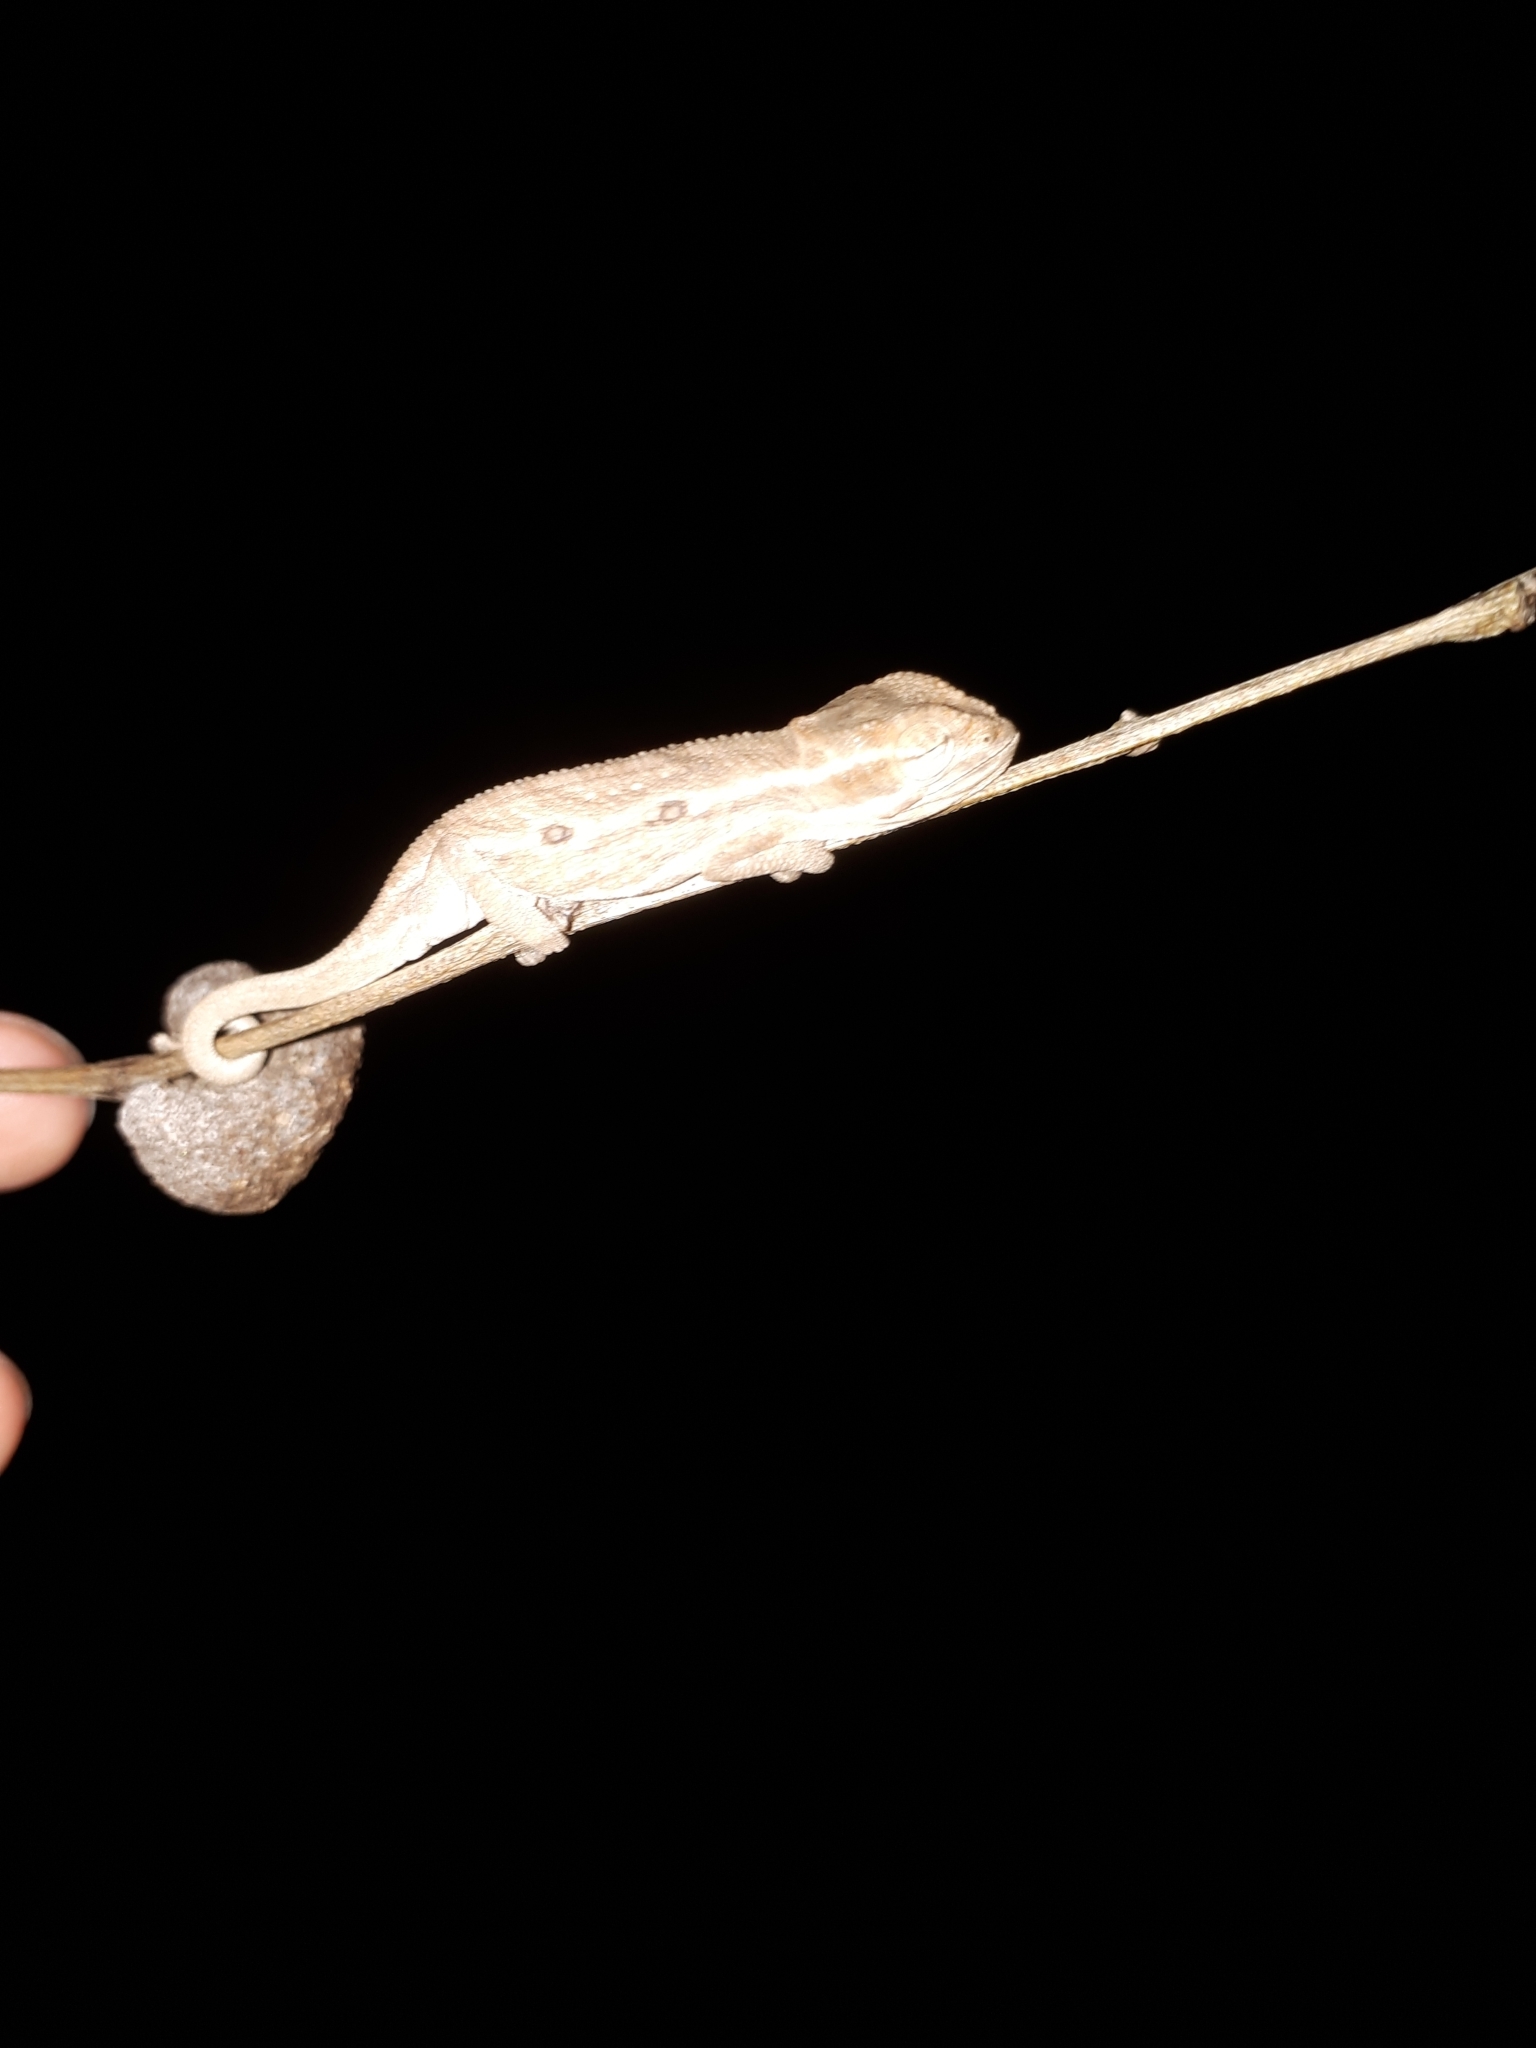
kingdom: Animalia
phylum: Chordata
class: Squamata
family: Chamaeleonidae
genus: Bradypodion
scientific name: Bradypodion pumilum
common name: Cape dwarf chameleon
